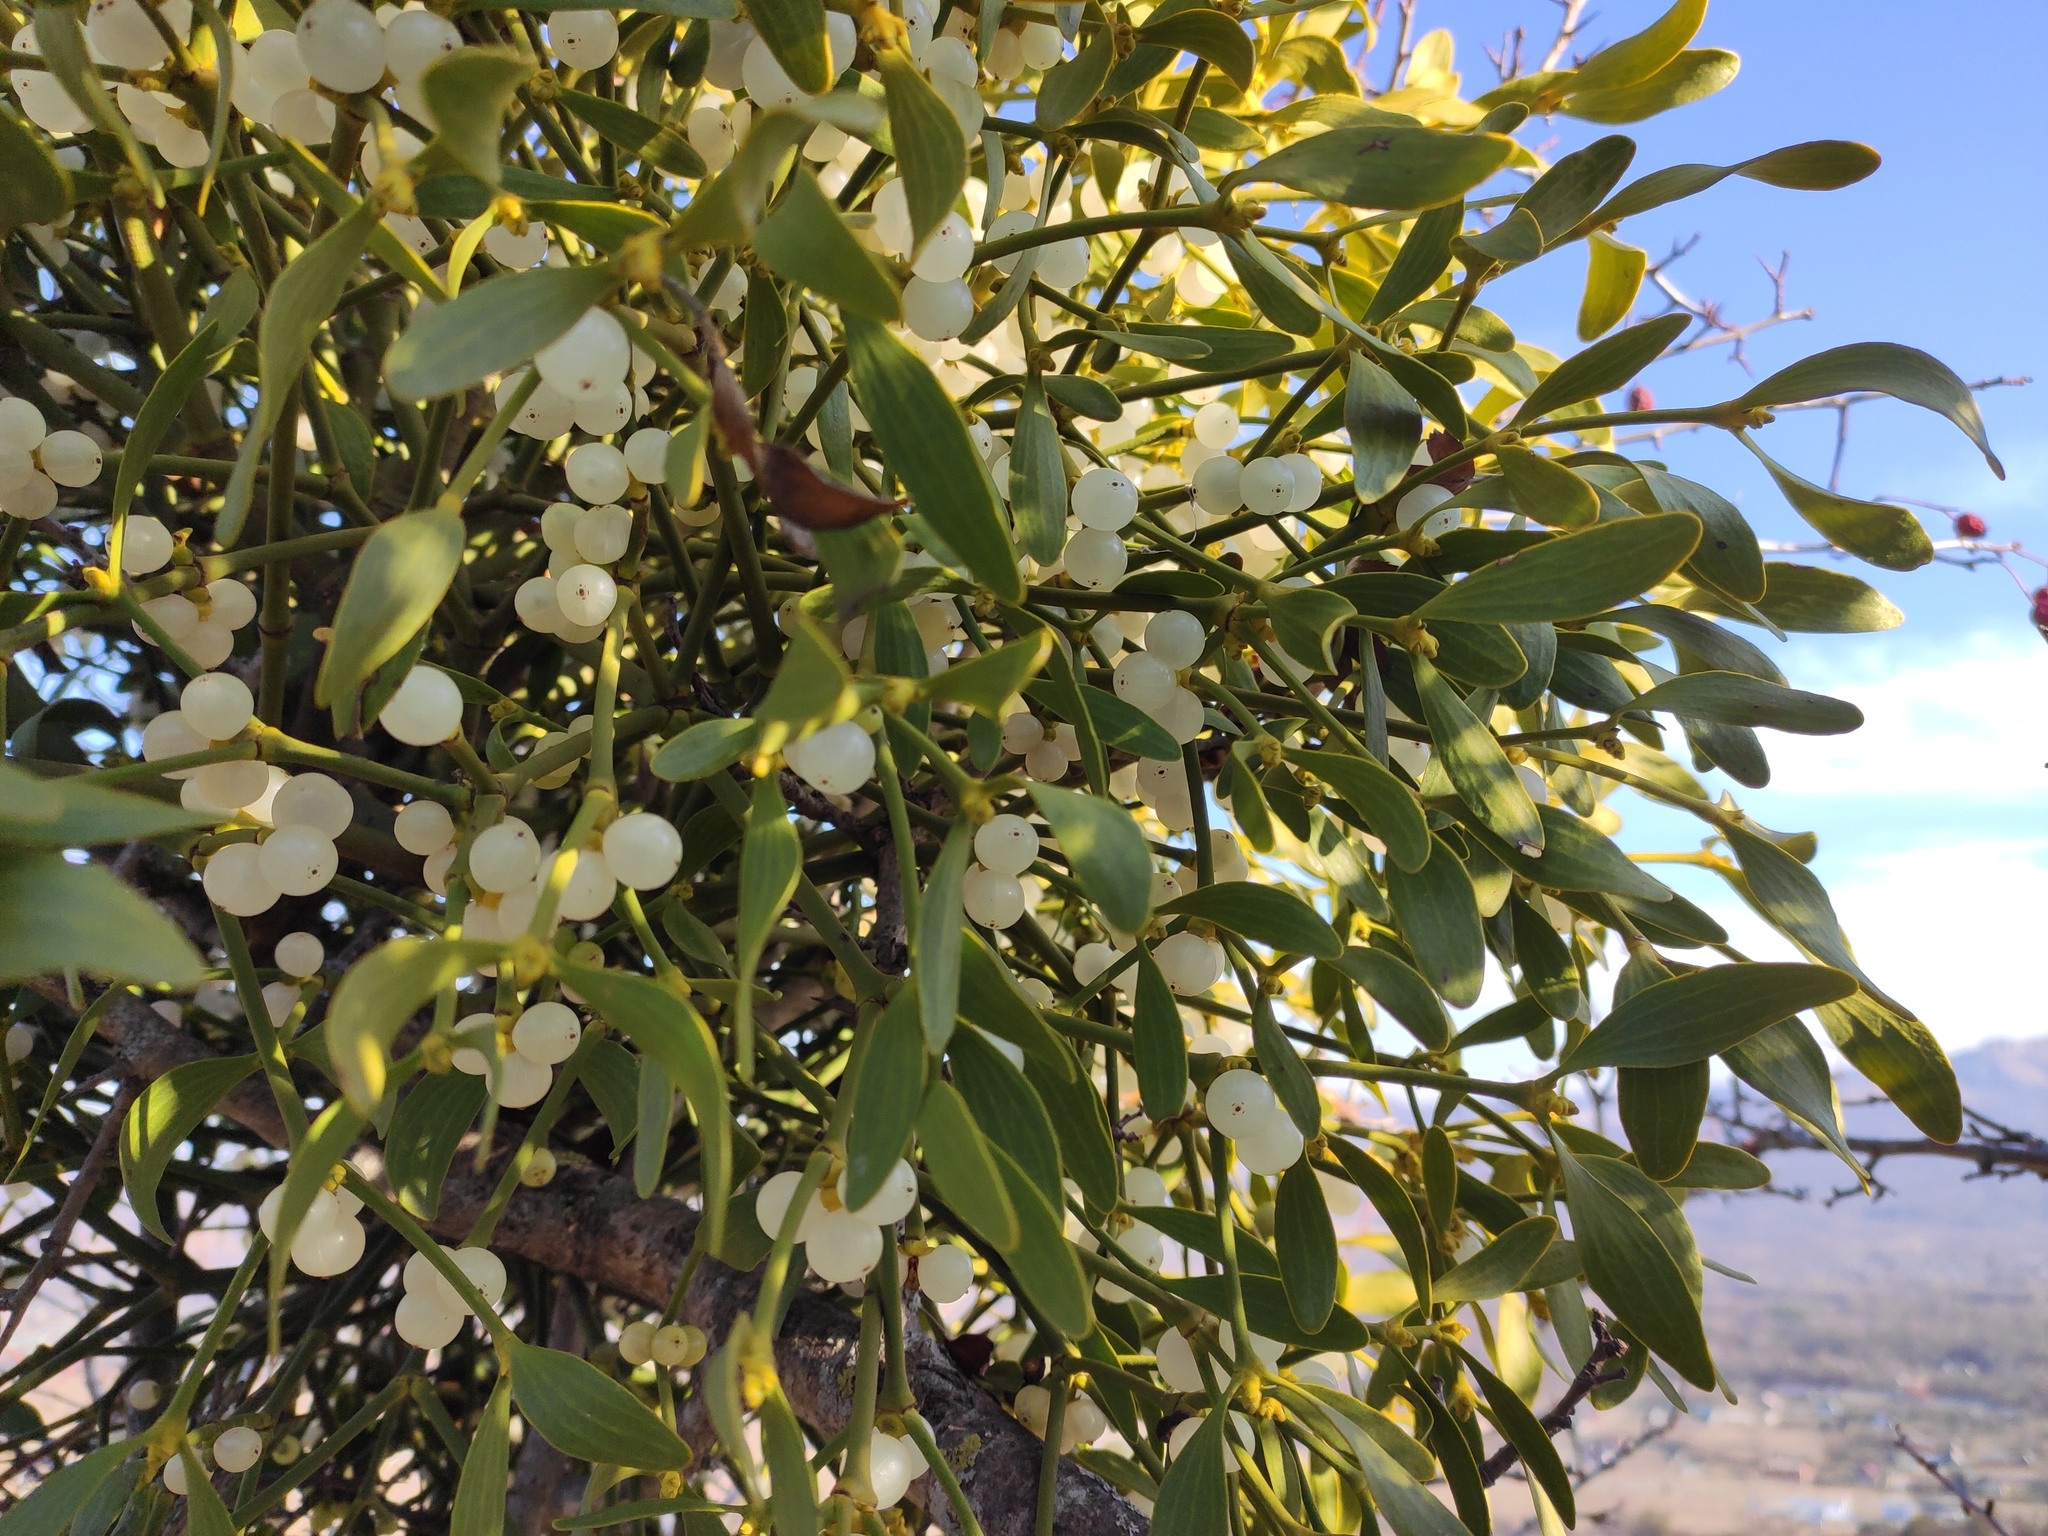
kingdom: Plantae
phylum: Tracheophyta
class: Magnoliopsida
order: Santalales
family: Viscaceae
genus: Viscum
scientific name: Viscum album
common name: Mistletoe
